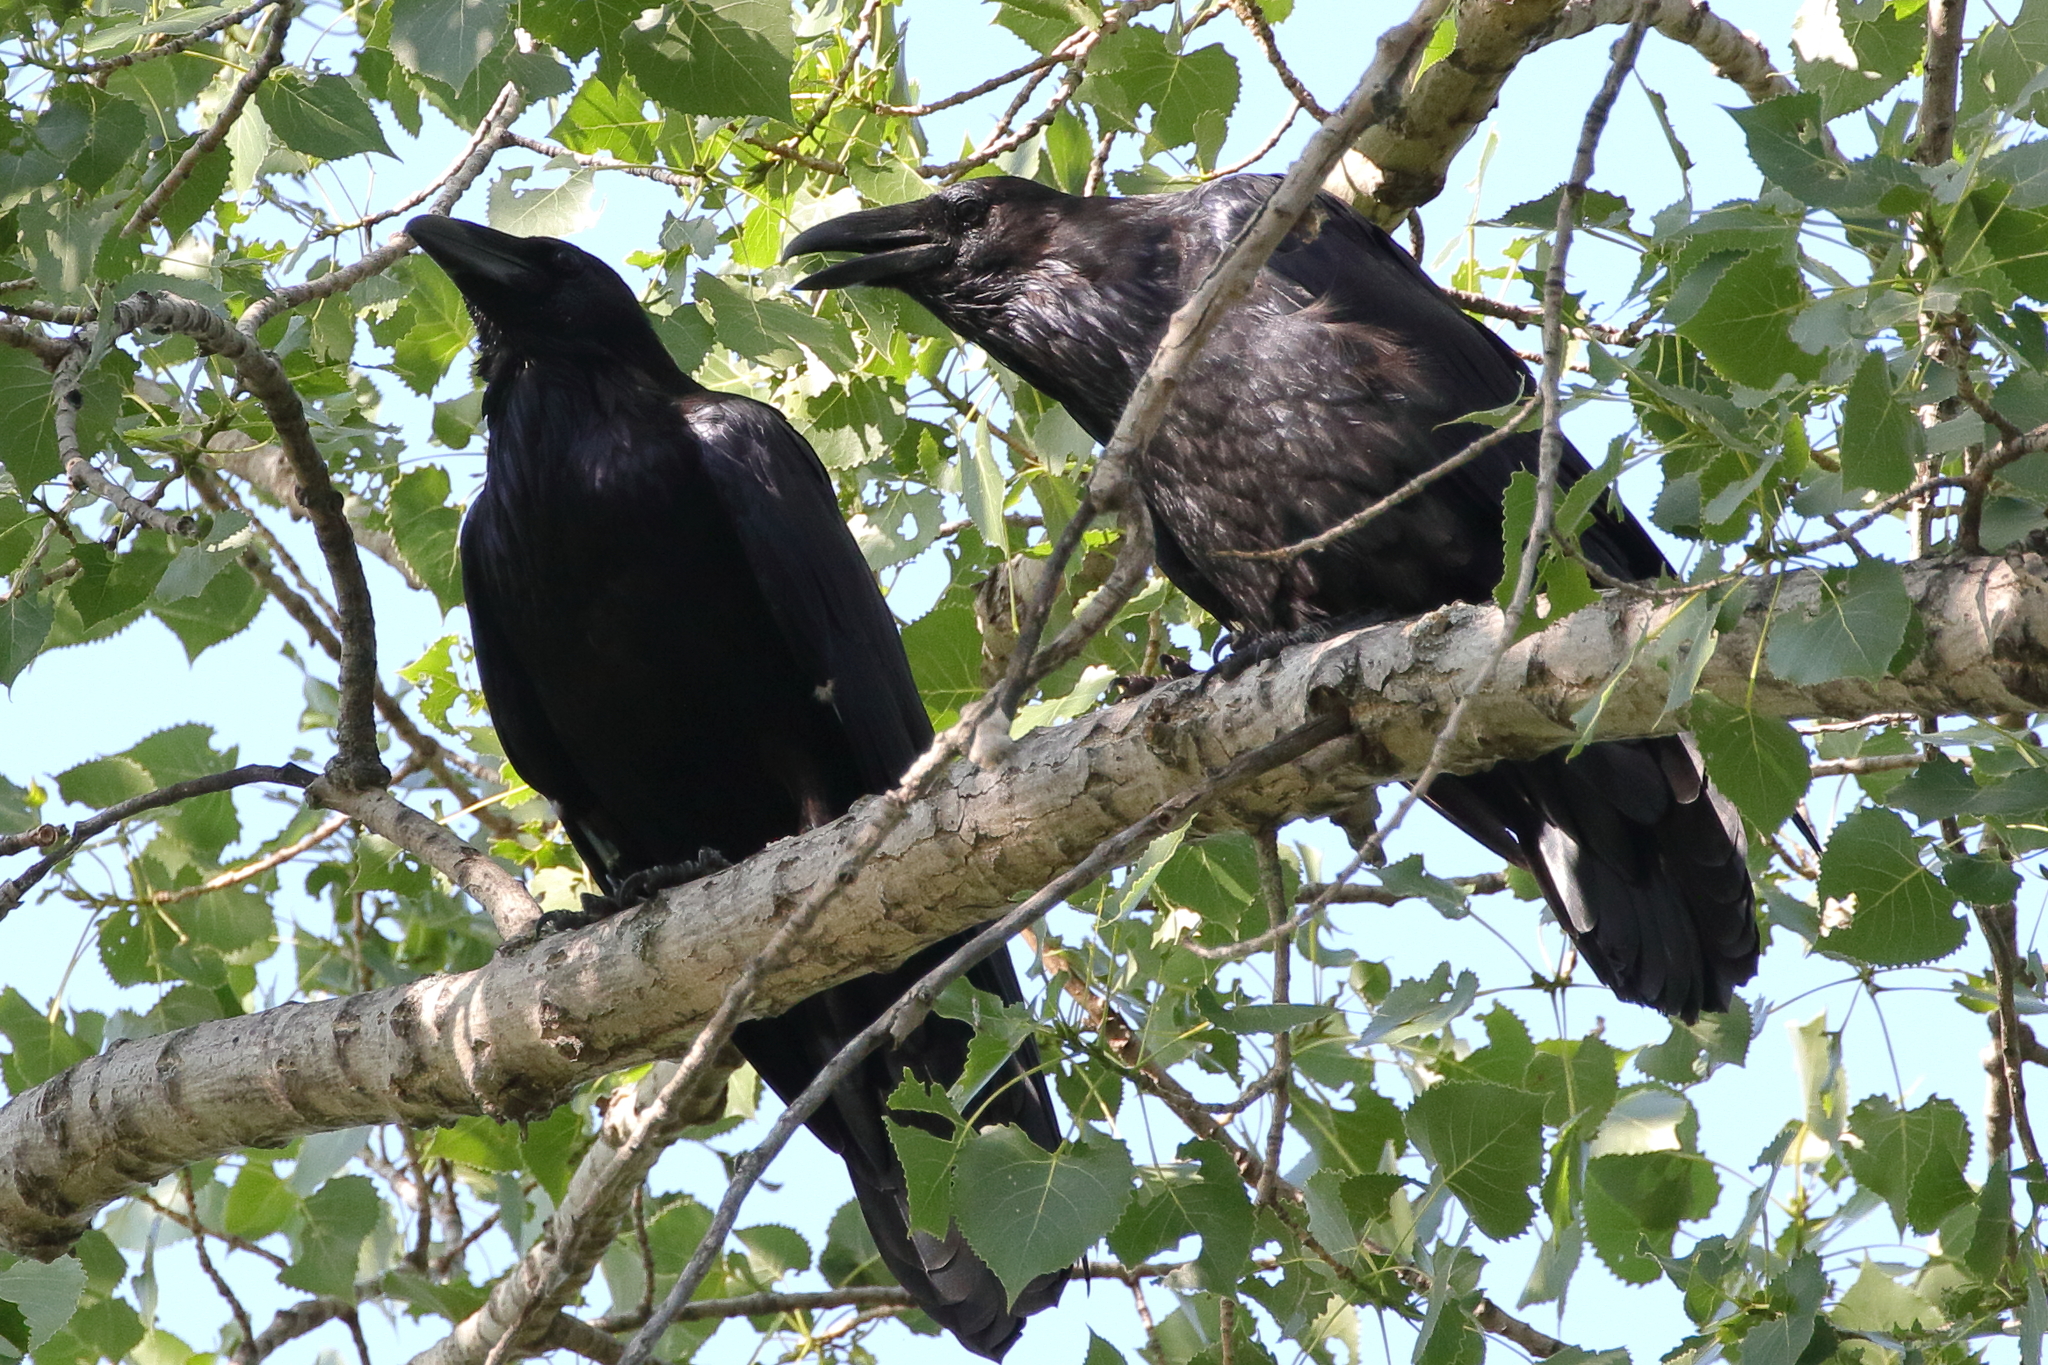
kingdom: Animalia
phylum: Chordata
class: Aves
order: Passeriformes
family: Corvidae
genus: Corvus
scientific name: Corvus corax
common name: Common raven
